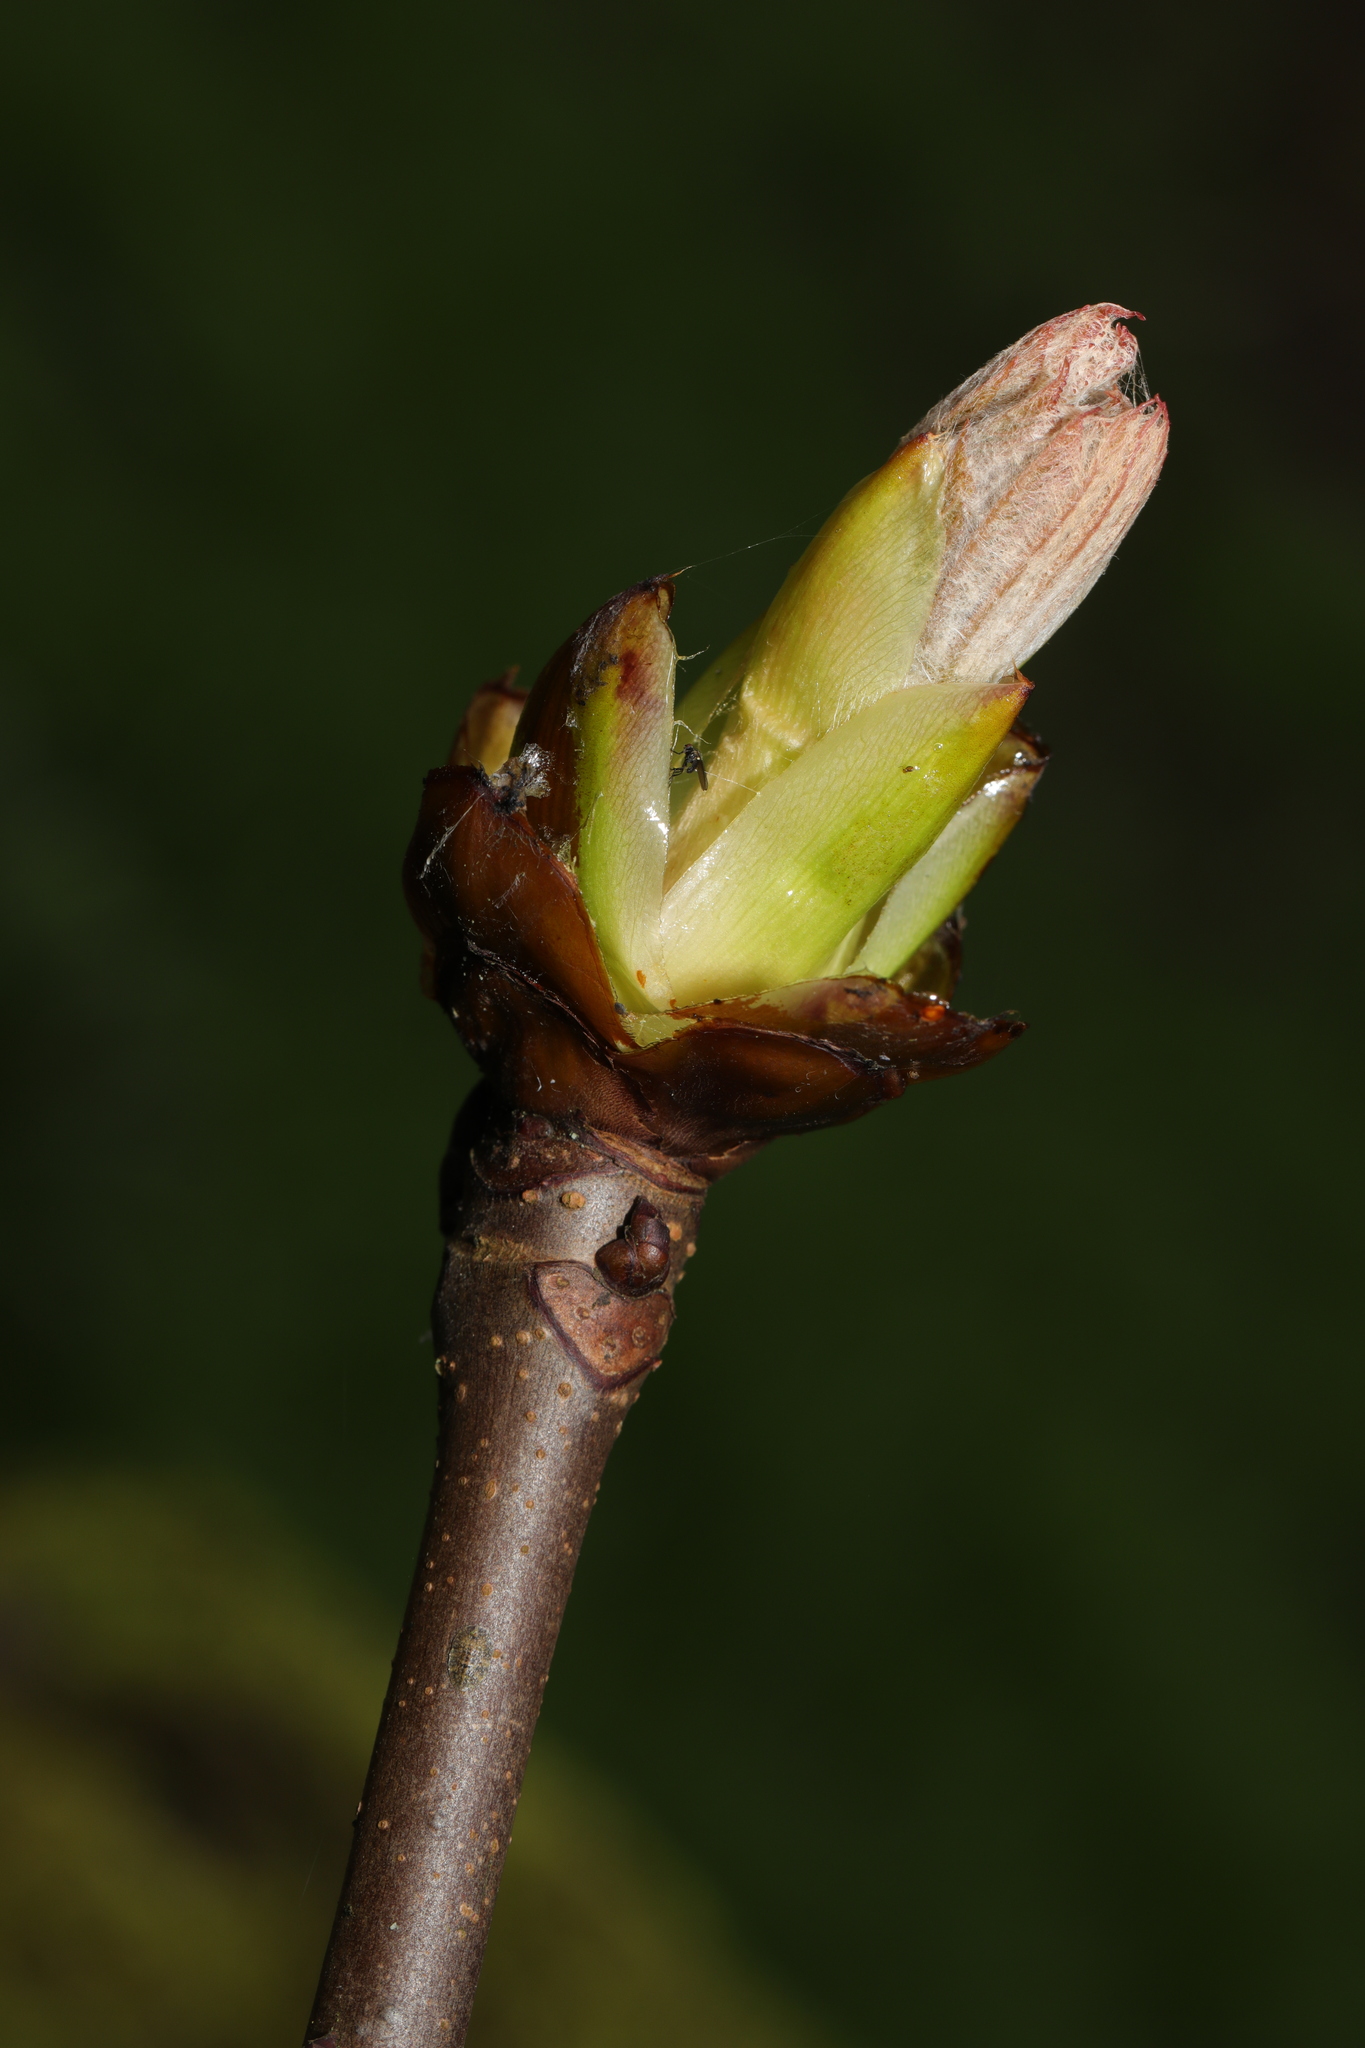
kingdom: Plantae
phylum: Tracheophyta
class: Magnoliopsida
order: Sapindales
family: Sapindaceae
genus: Aesculus
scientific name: Aesculus hippocastanum
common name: Horse-chestnut
